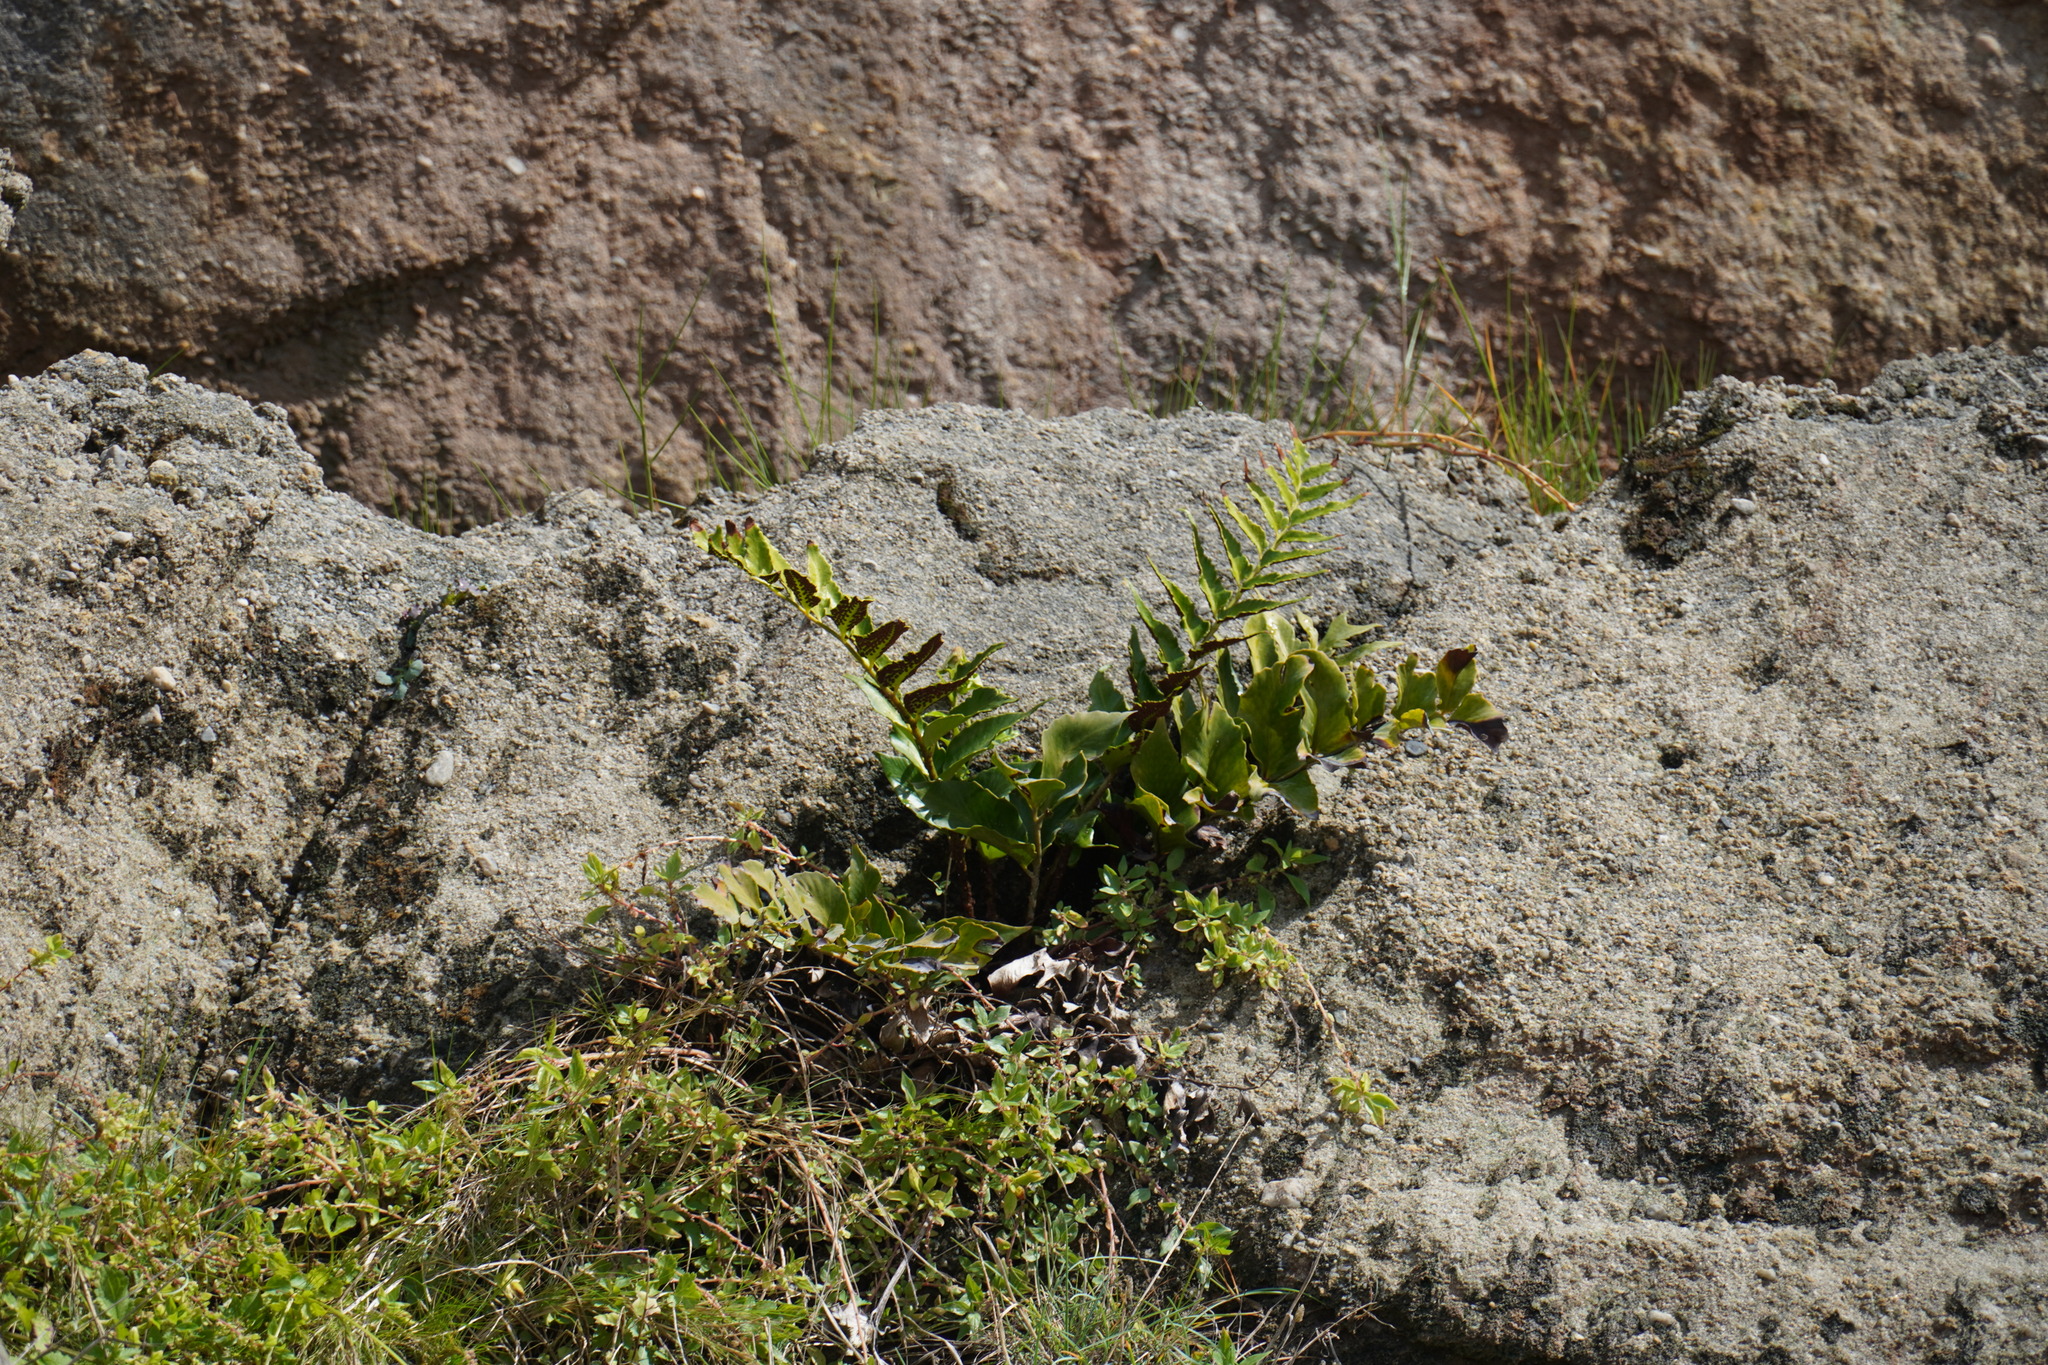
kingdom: Plantae
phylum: Tracheophyta
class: Polypodiopsida
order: Polypodiales
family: Dryopteridaceae
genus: Cyrtomium
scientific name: Cyrtomium falcatum
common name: House holly-fern
